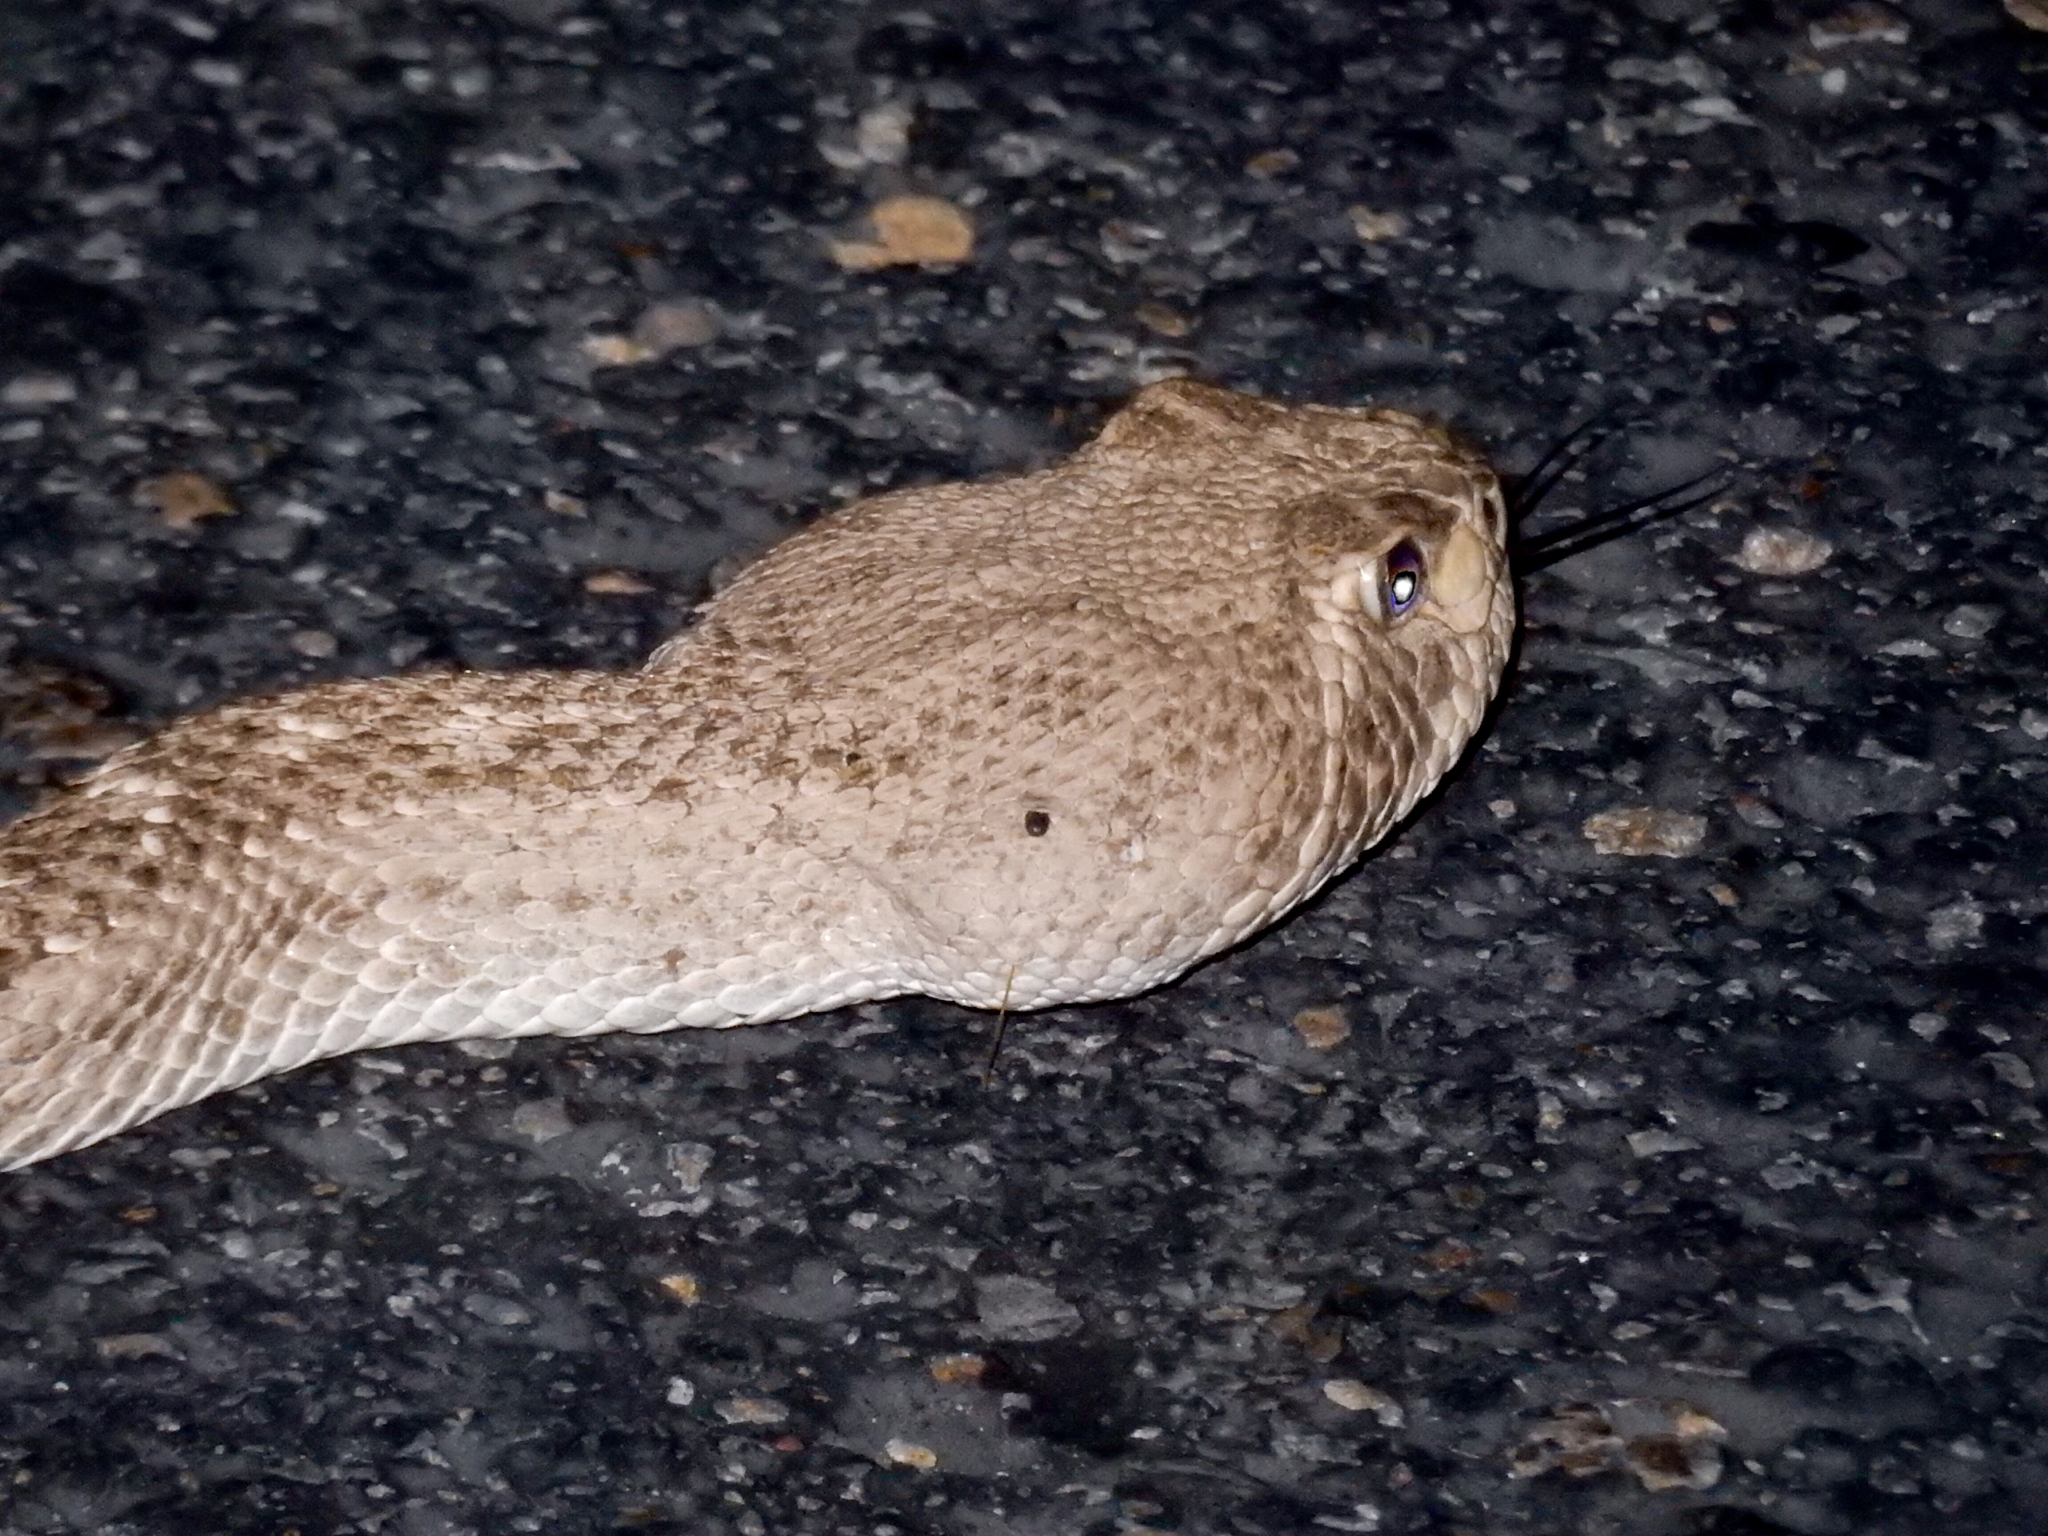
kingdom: Animalia
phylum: Chordata
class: Squamata
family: Viperidae
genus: Crotalus
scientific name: Crotalus atrox
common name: Western diamond-backed rattlesnake
